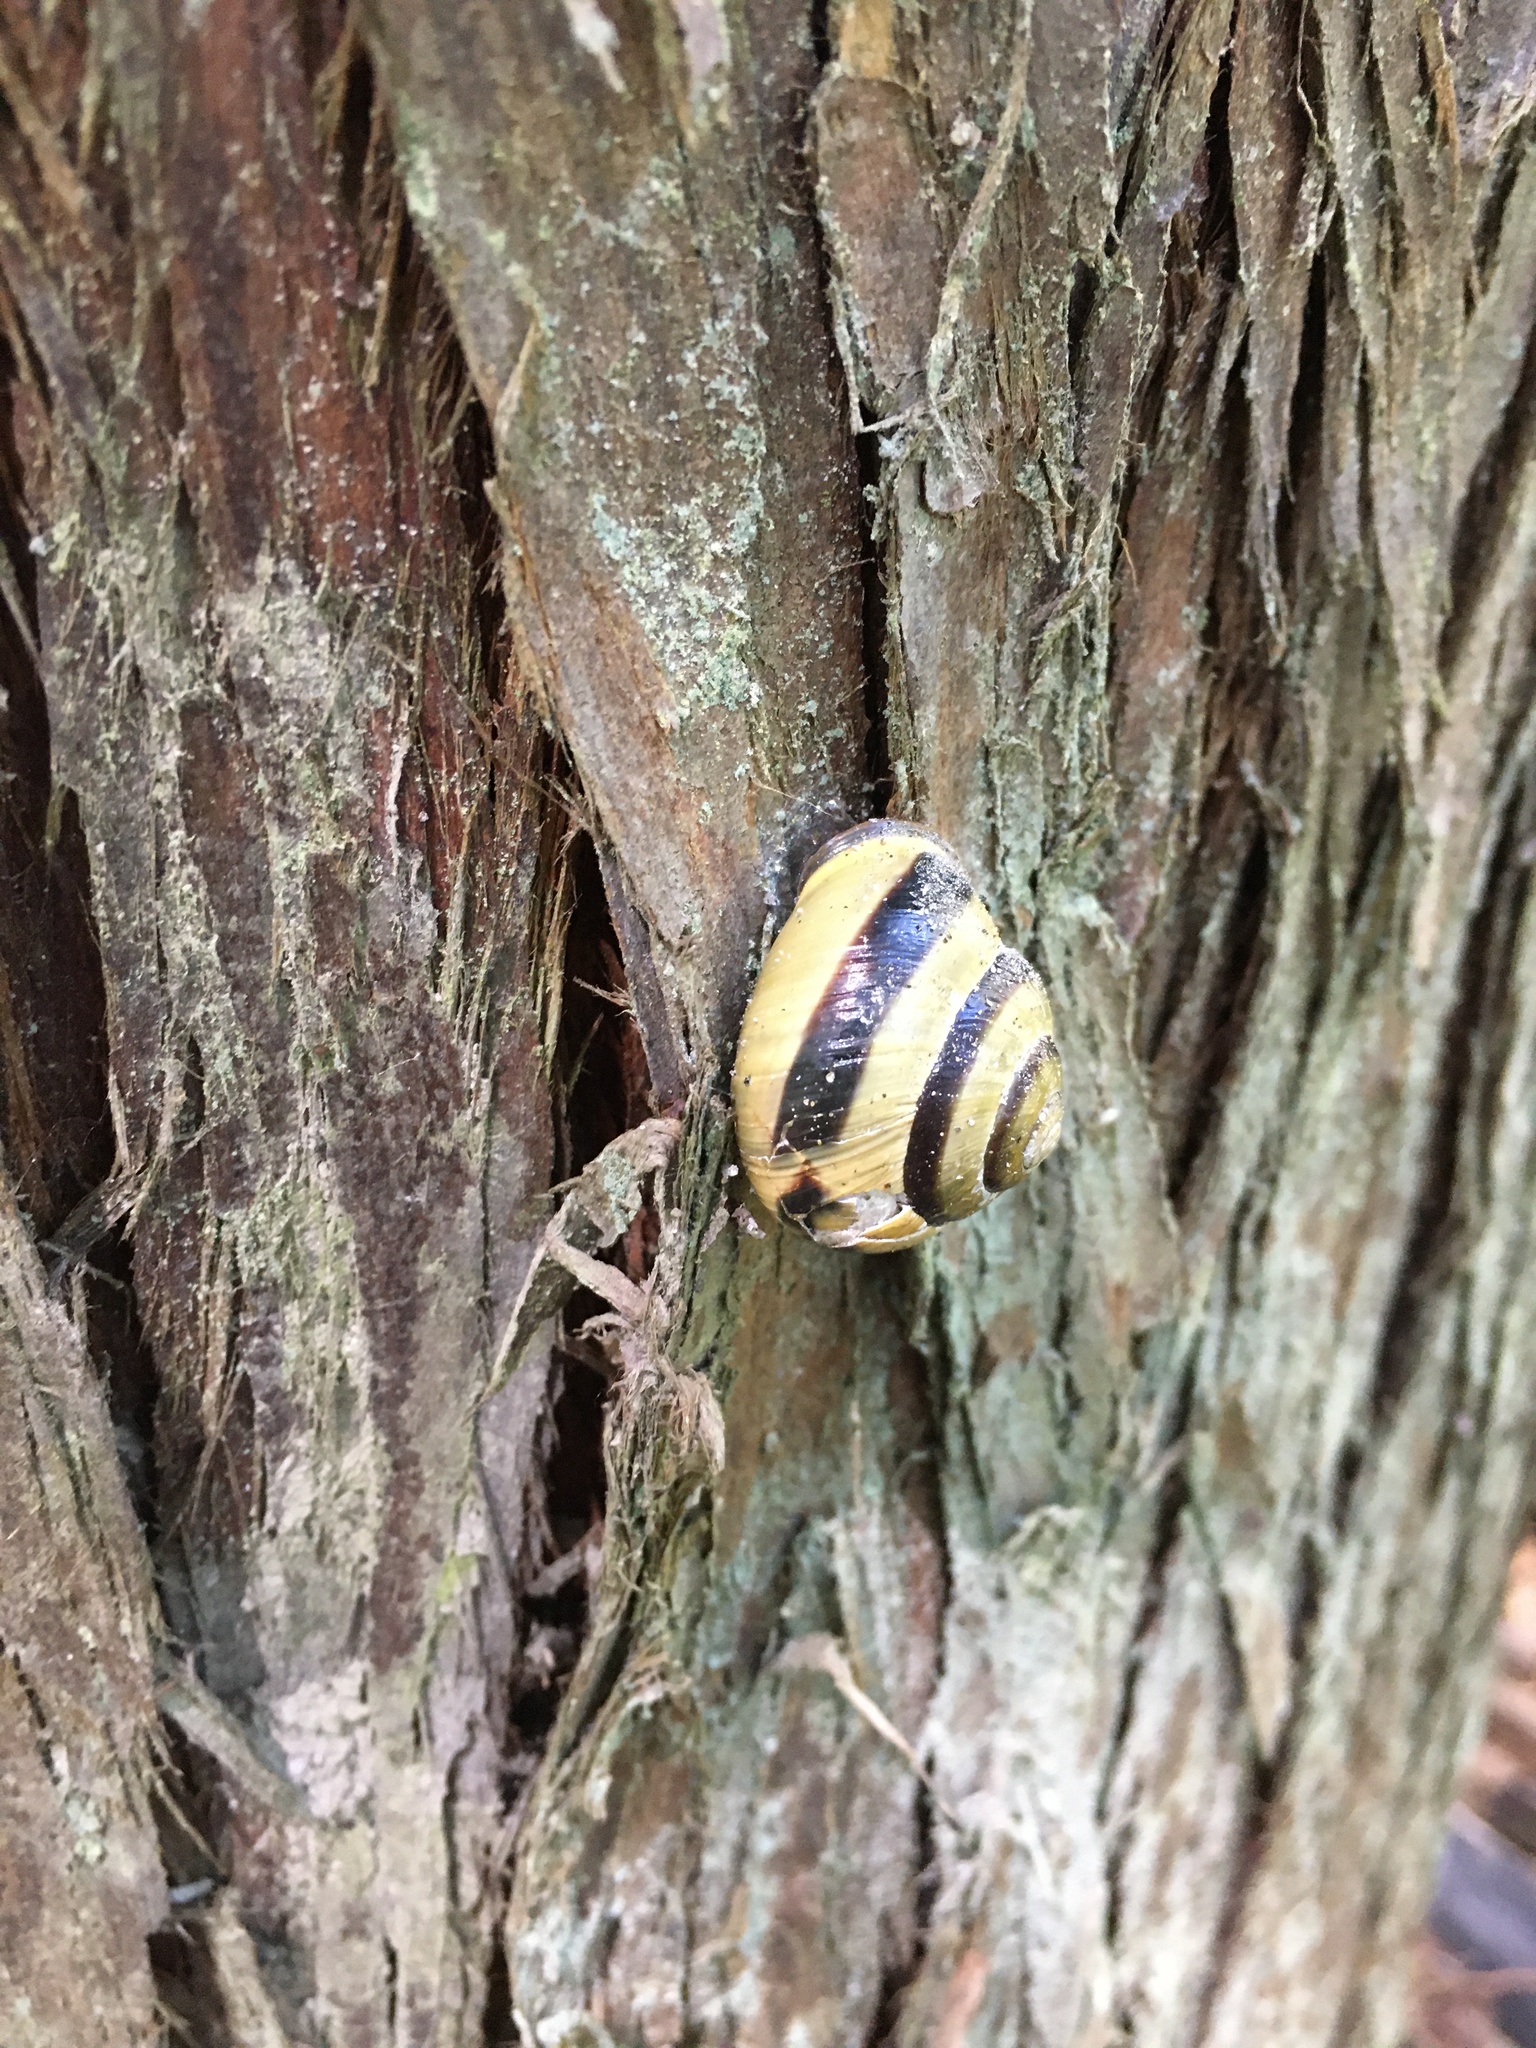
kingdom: Animalia
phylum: Mollusca
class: Gastropoda
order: Stylommatophora
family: Helicidae
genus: Cepaea
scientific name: Cepaea nemoralis
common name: Grovesnail
